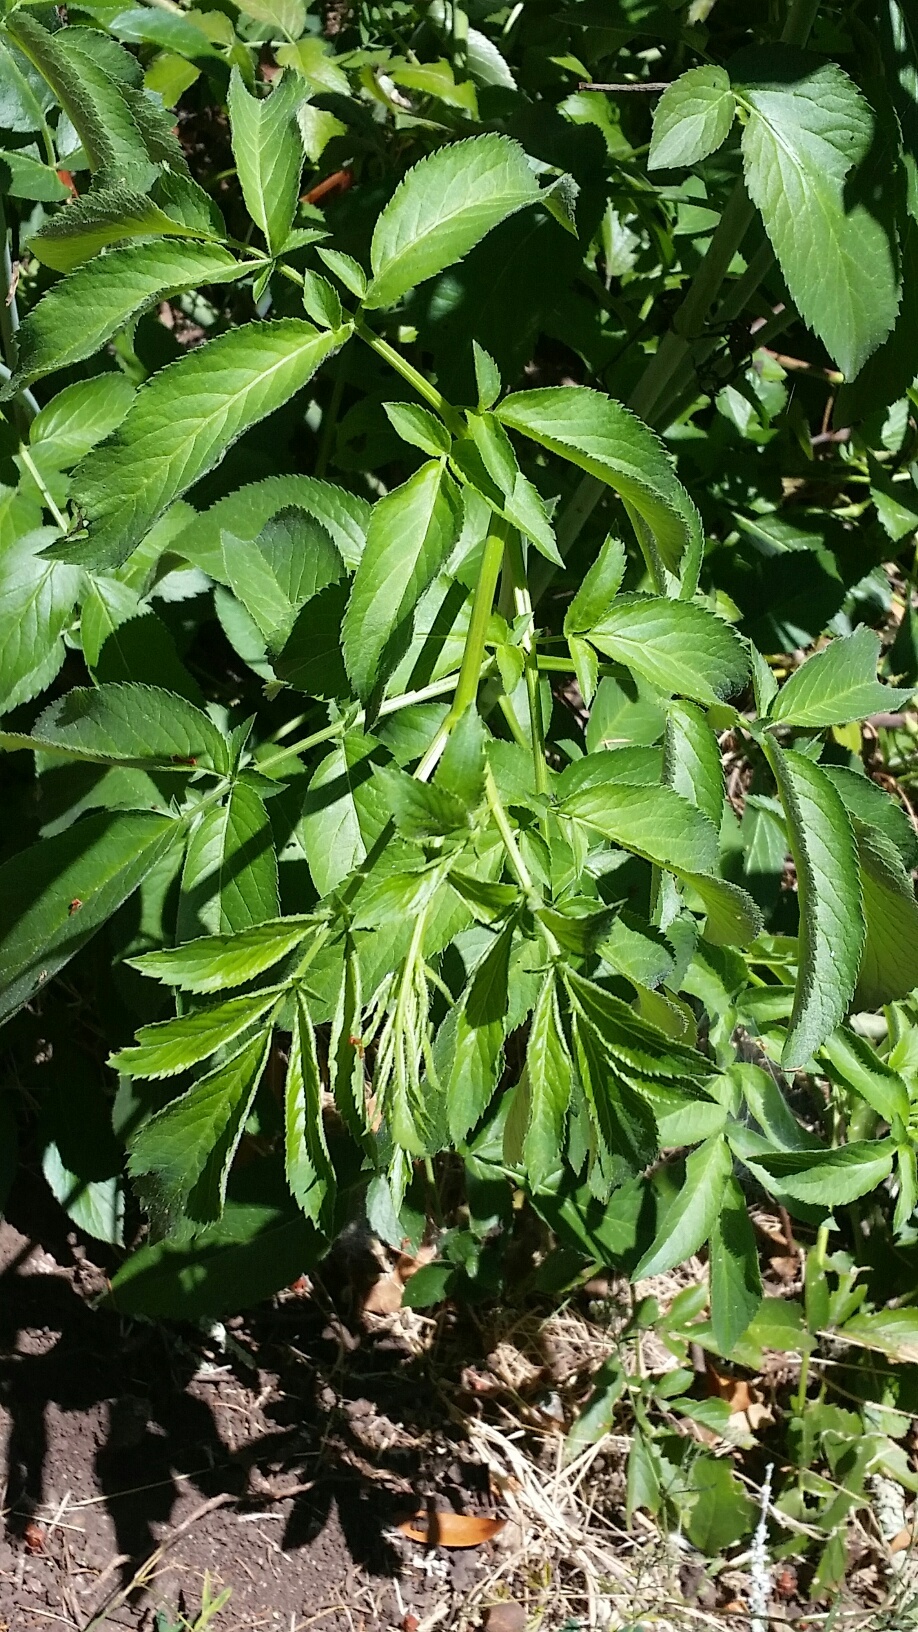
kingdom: Plantae
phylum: Tracheophyta
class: Magnoliopsida
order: Dipsacales
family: Viburnaceae
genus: Sambucus
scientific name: Sambucus cerulea
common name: Blue elder
